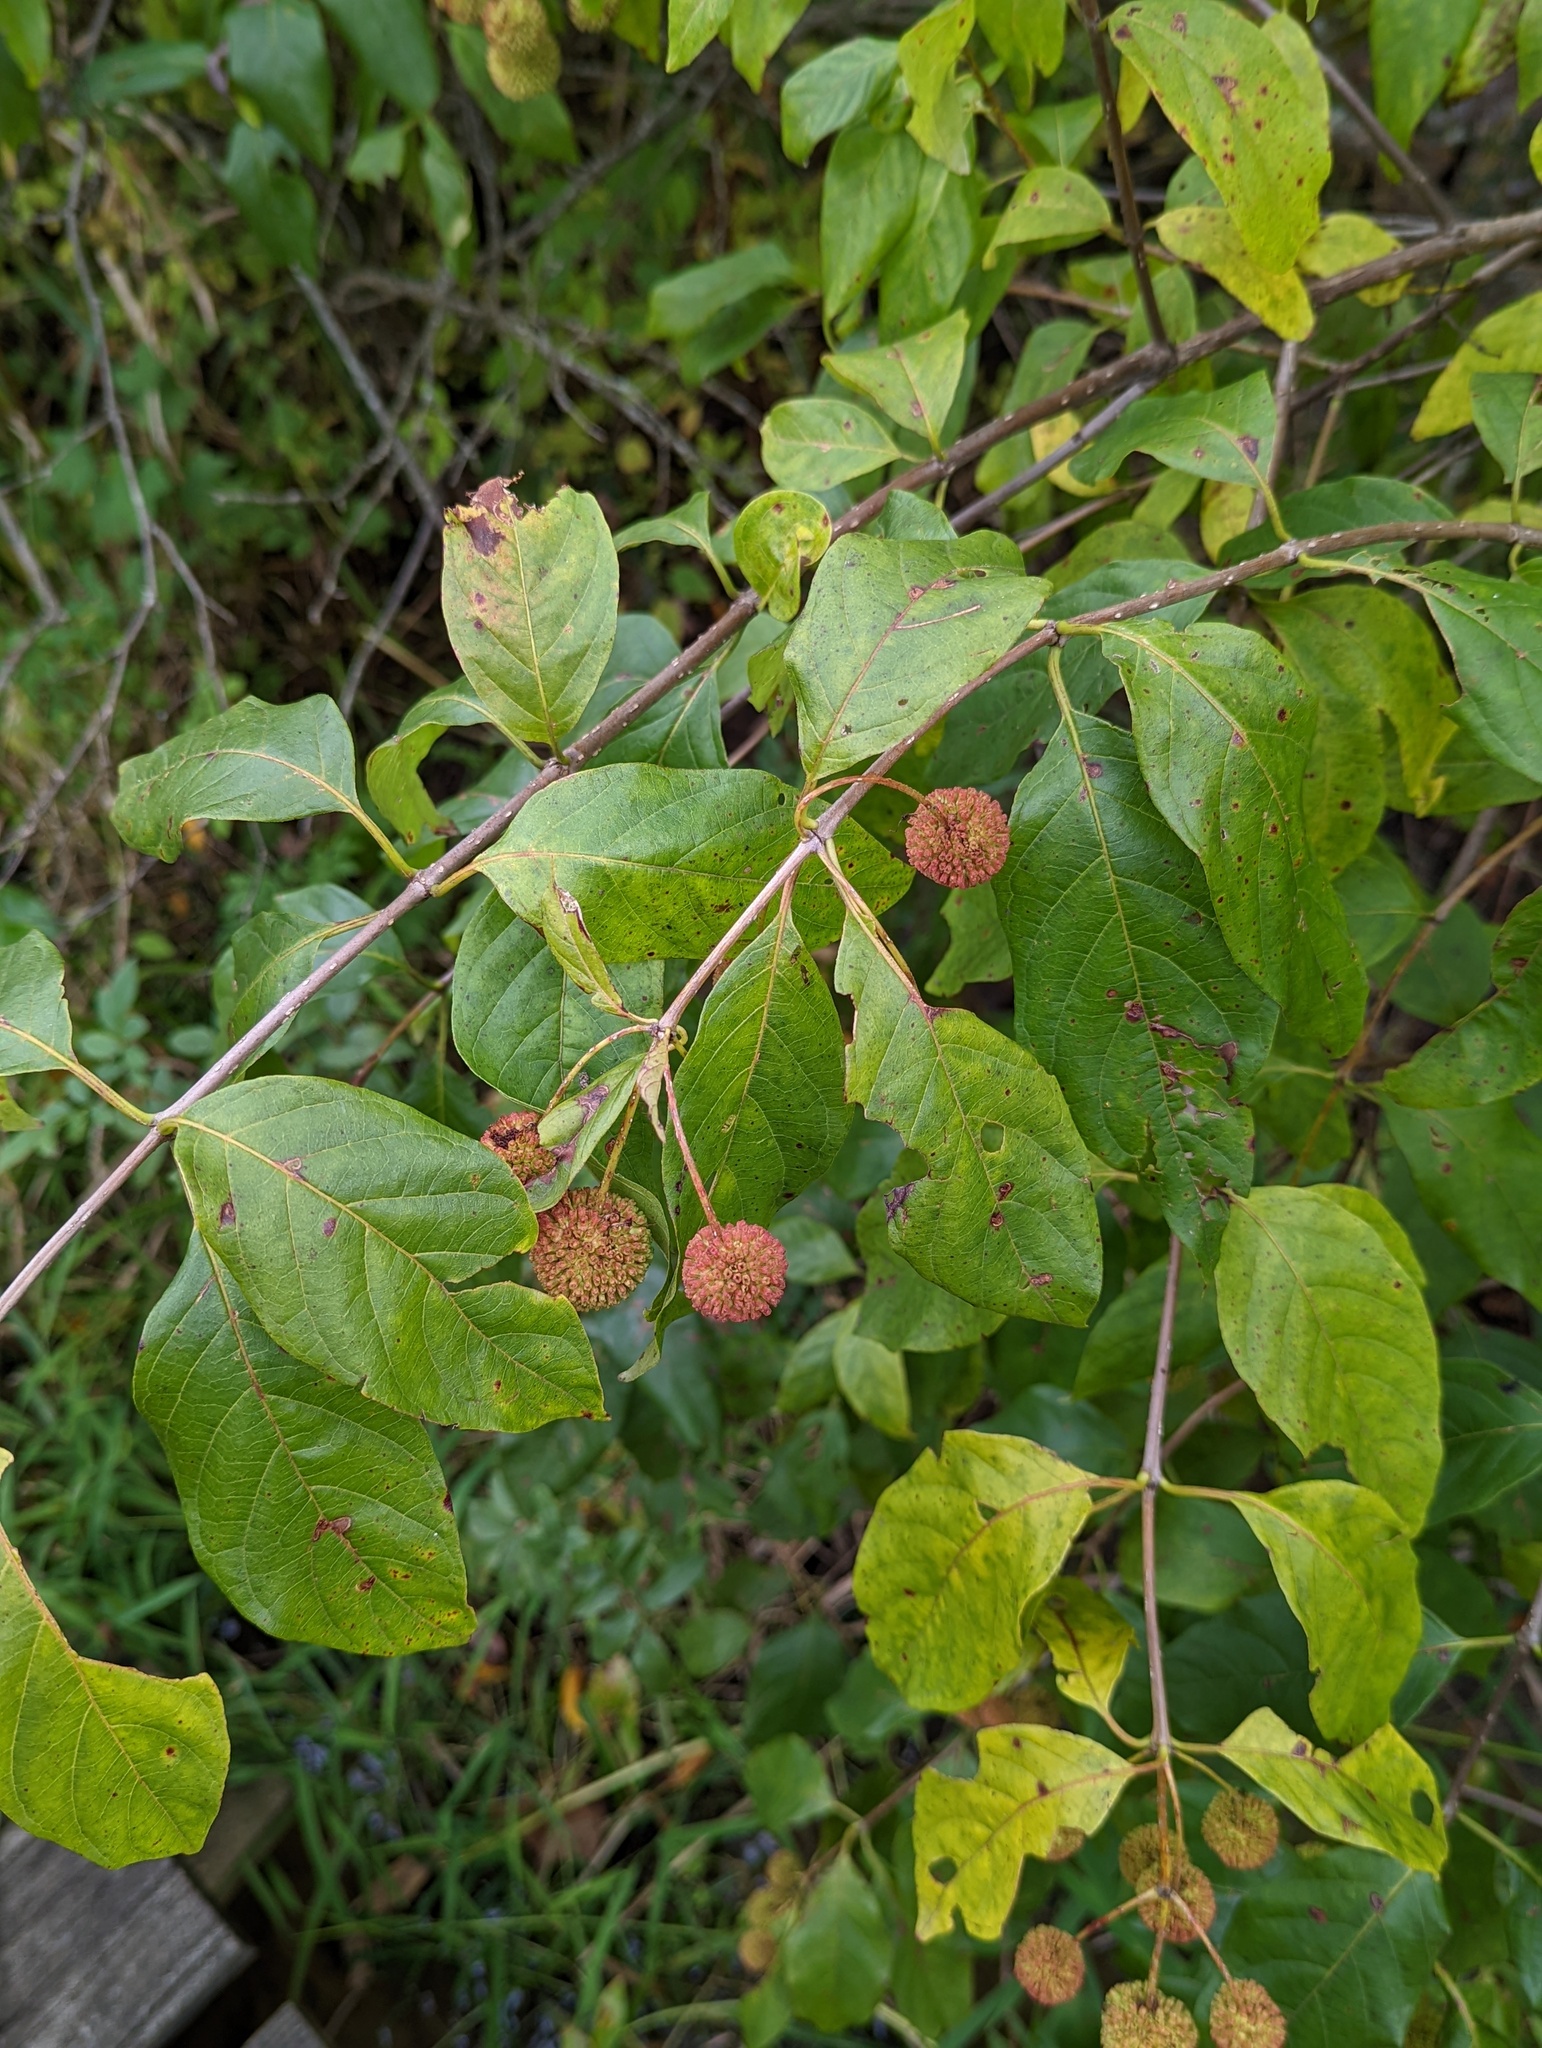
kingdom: Plantae
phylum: Tracheophyta
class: Magnoliopsida
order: Gentianales
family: Rubiaceae
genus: Cephalanthus
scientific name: Cephalanthus occidentalis
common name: Button-willow
